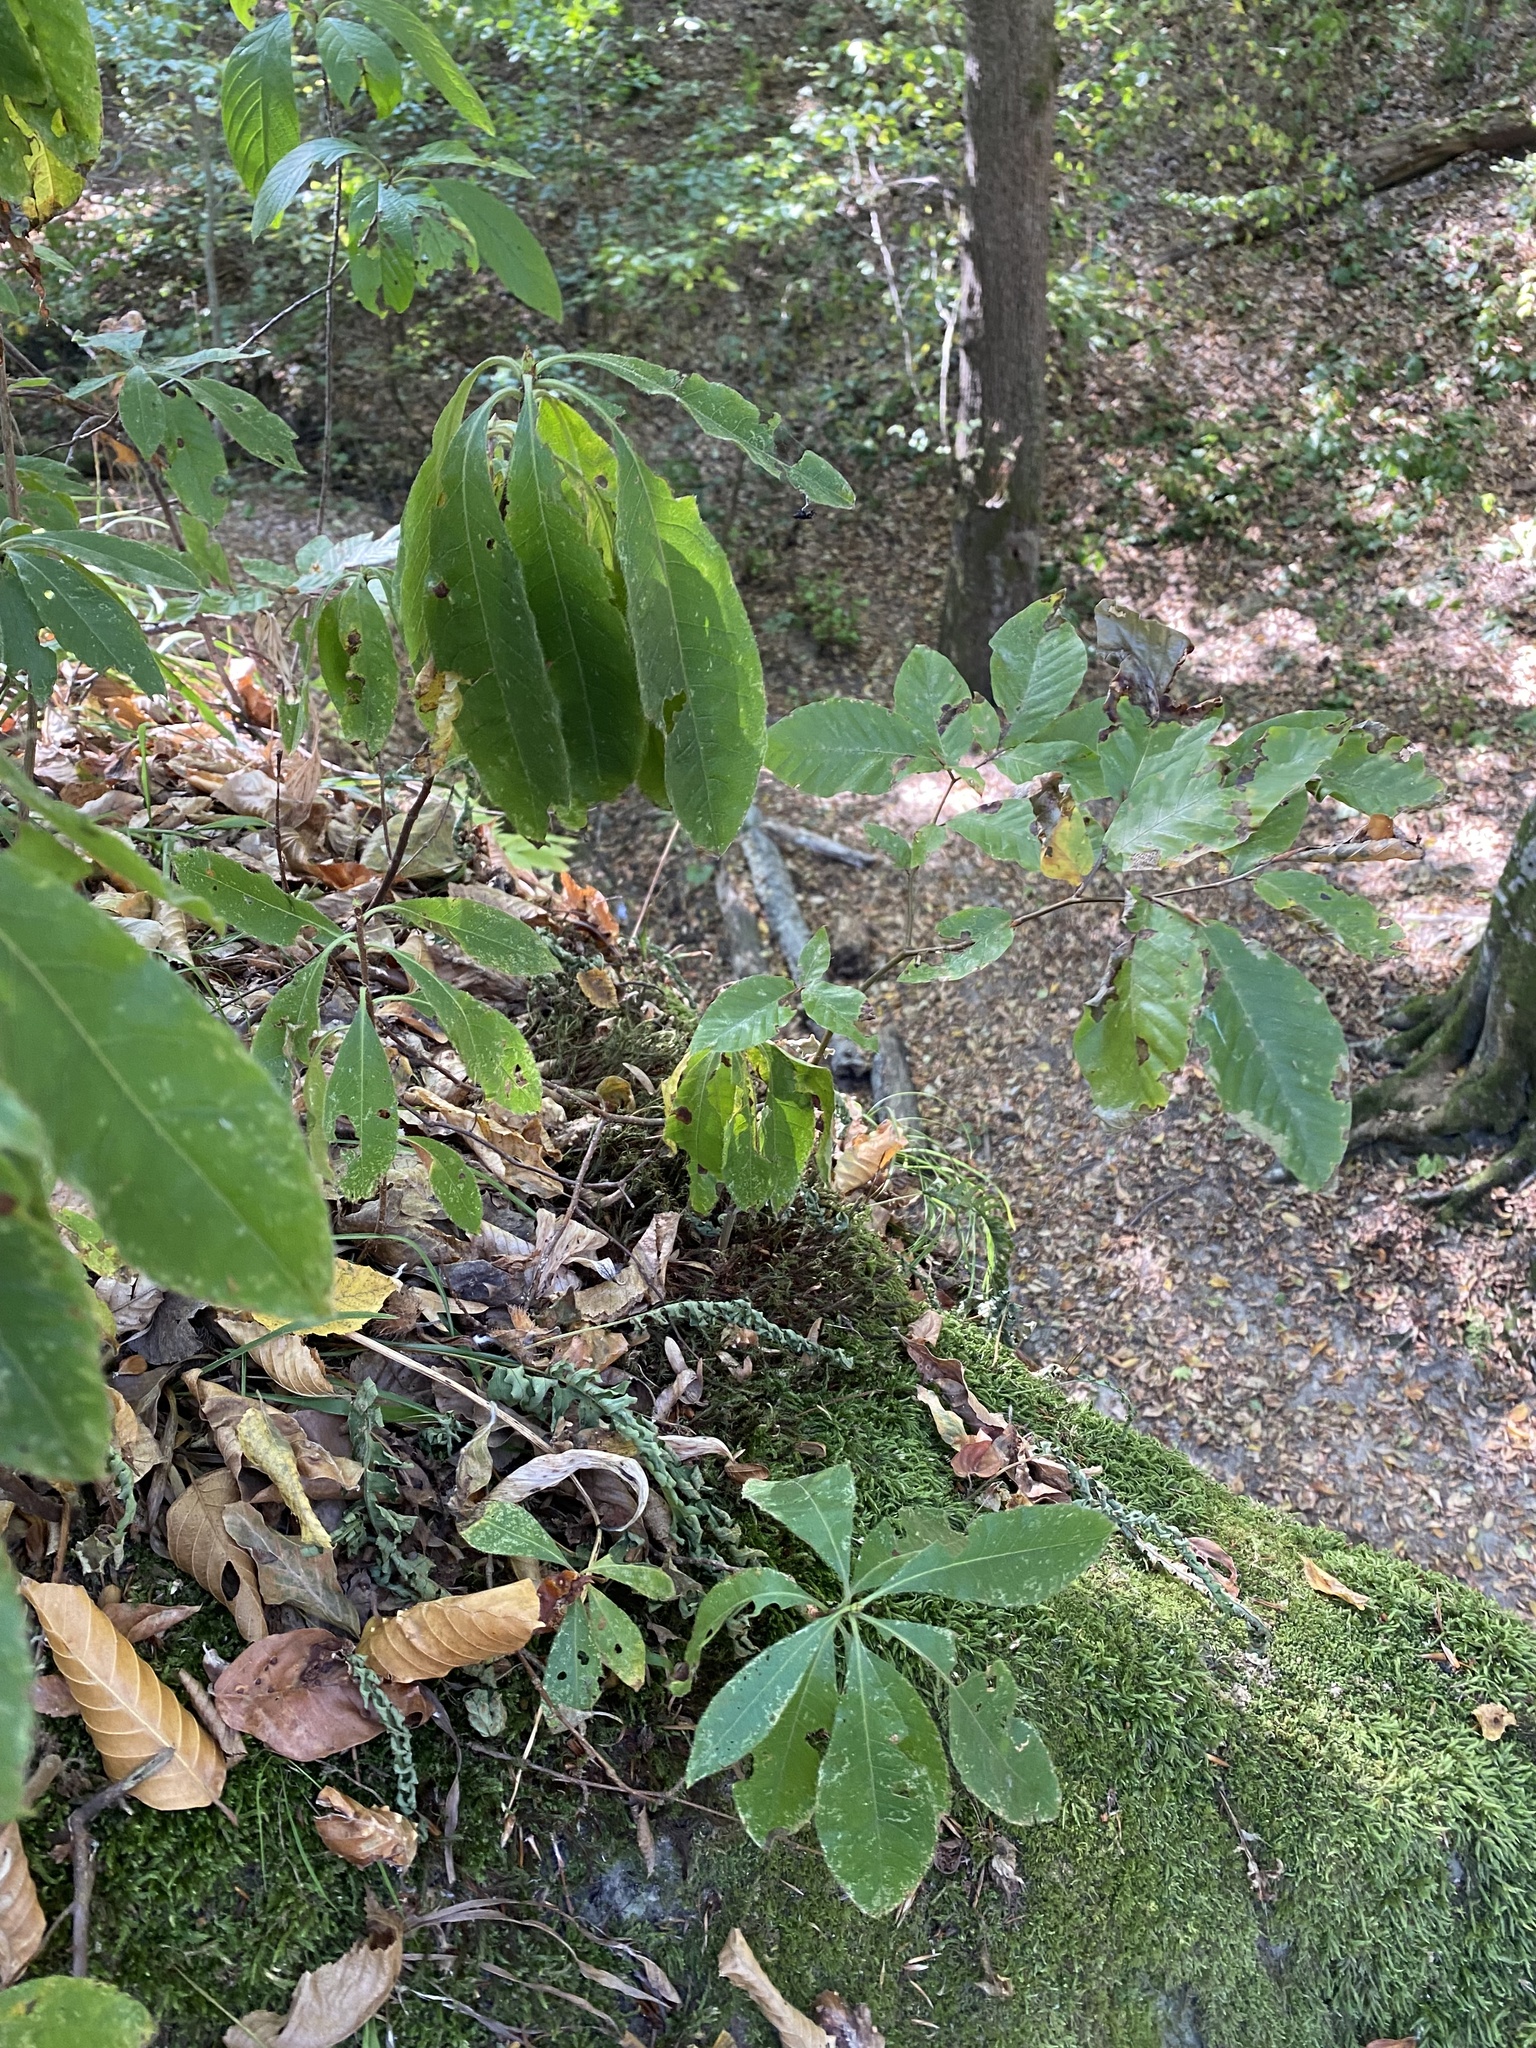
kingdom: Plantae
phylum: Tracheophyta
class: Magnoliopsida
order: Ericales
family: Ericaceae
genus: Rhododendron
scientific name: Rhododendron luteum
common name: Yellow azalea
